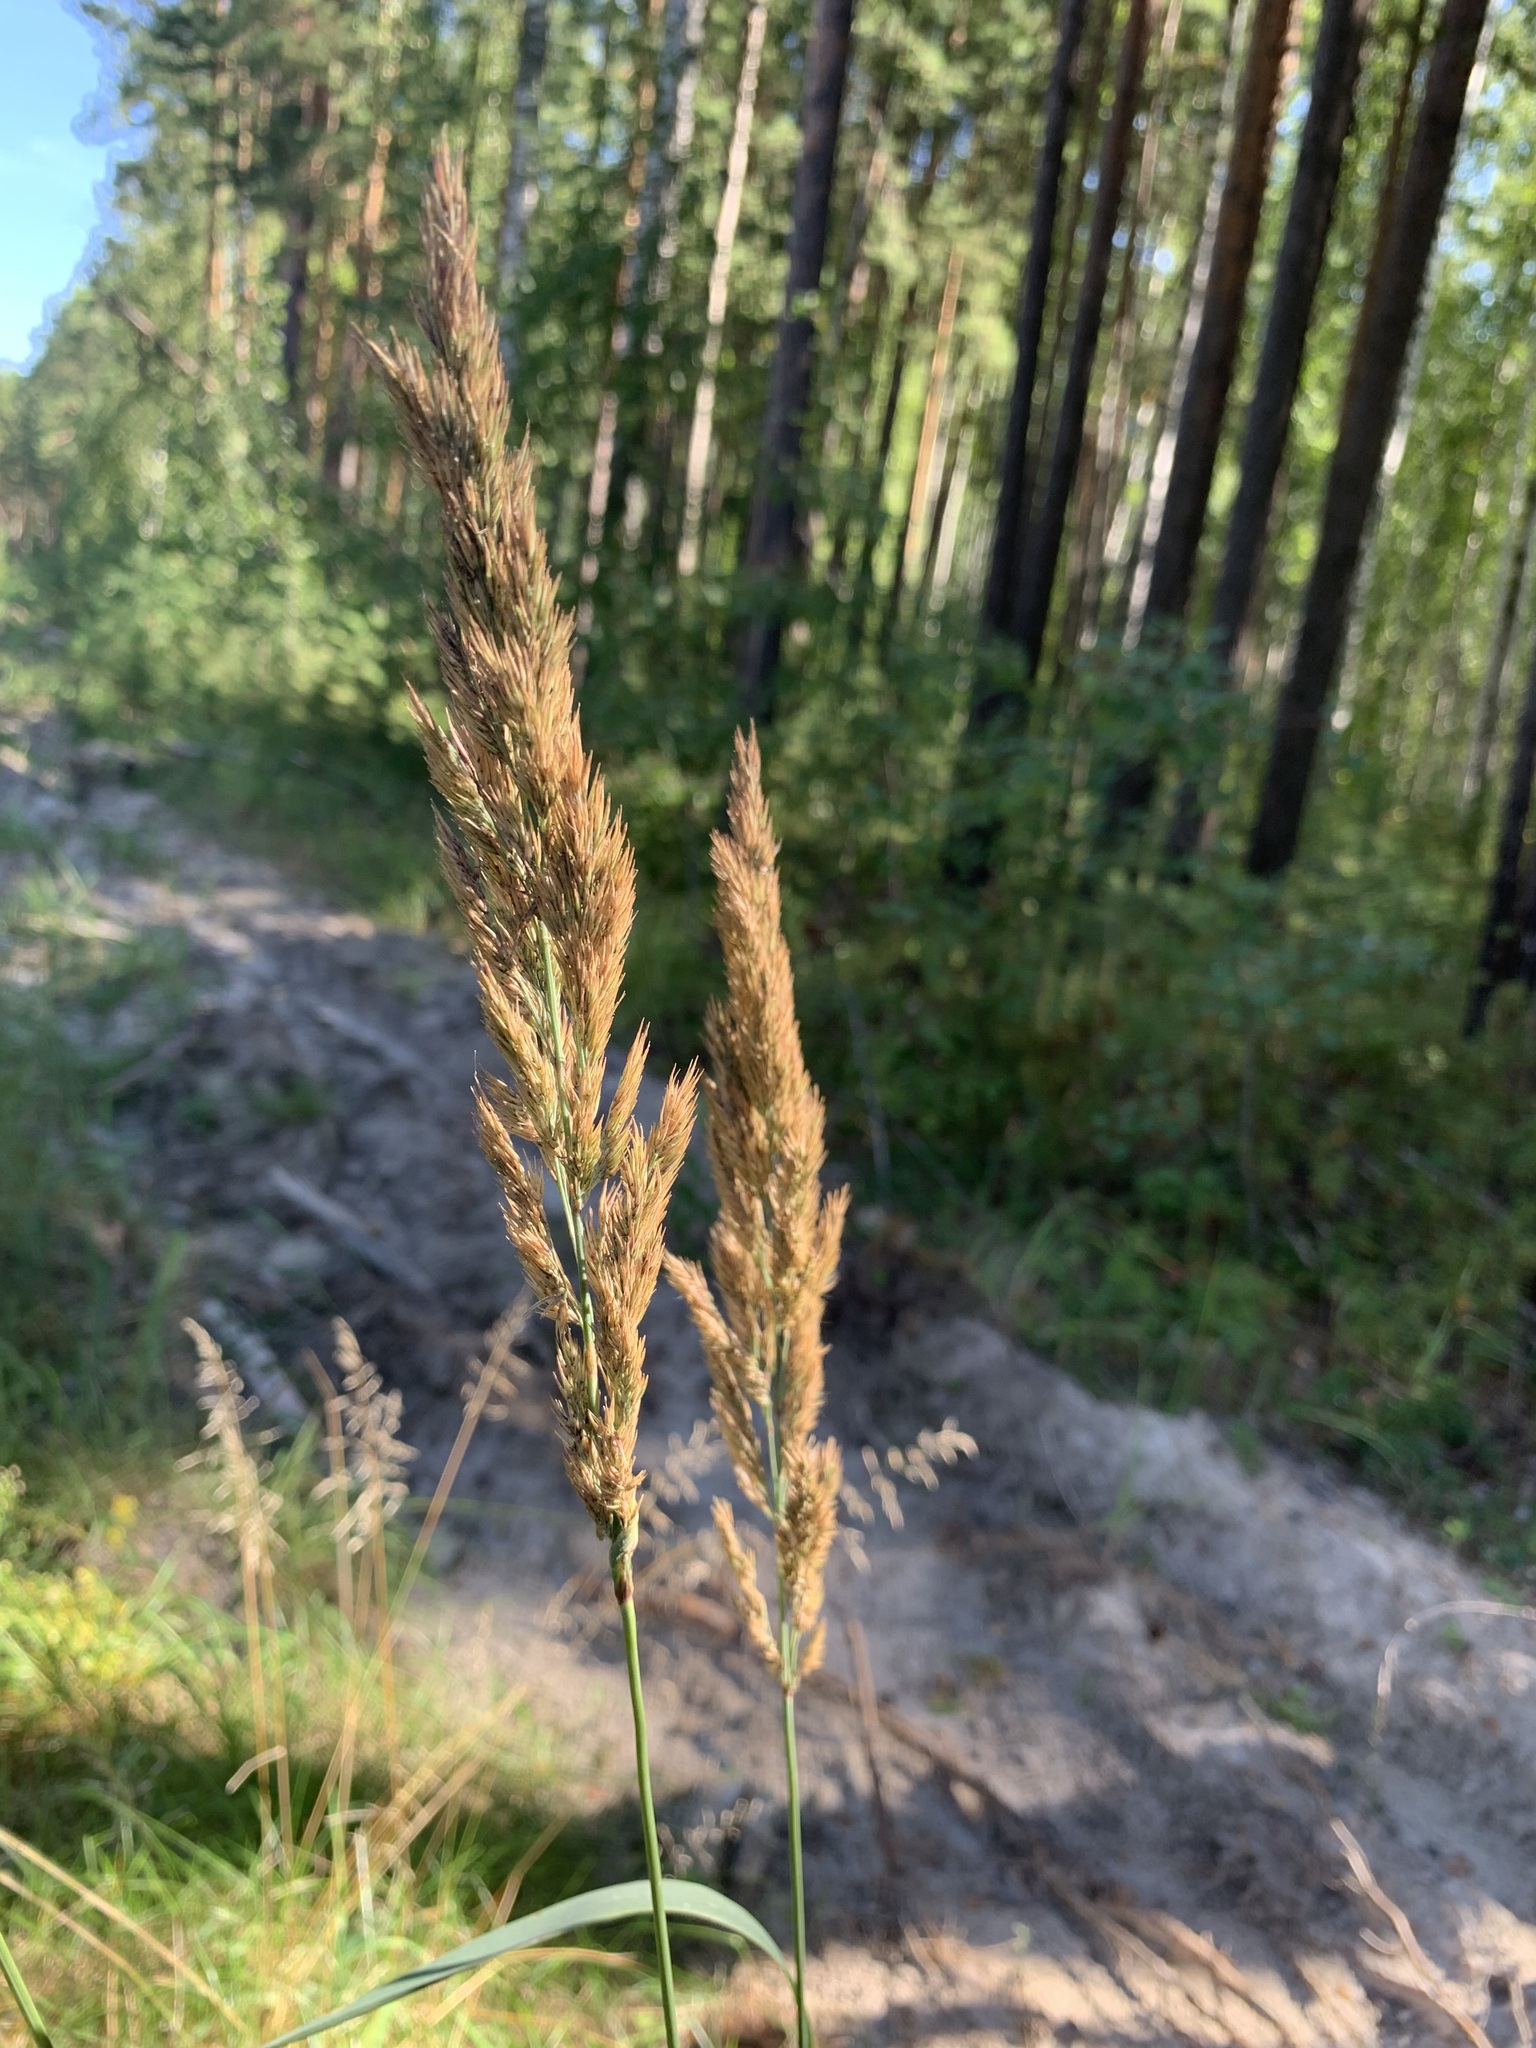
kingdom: Plantae
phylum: Tracheophyta
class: Liliopsida
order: Poales
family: Poaceae
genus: Calamagrostis
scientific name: Calamagrostis epigejos
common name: Wood small-reed
